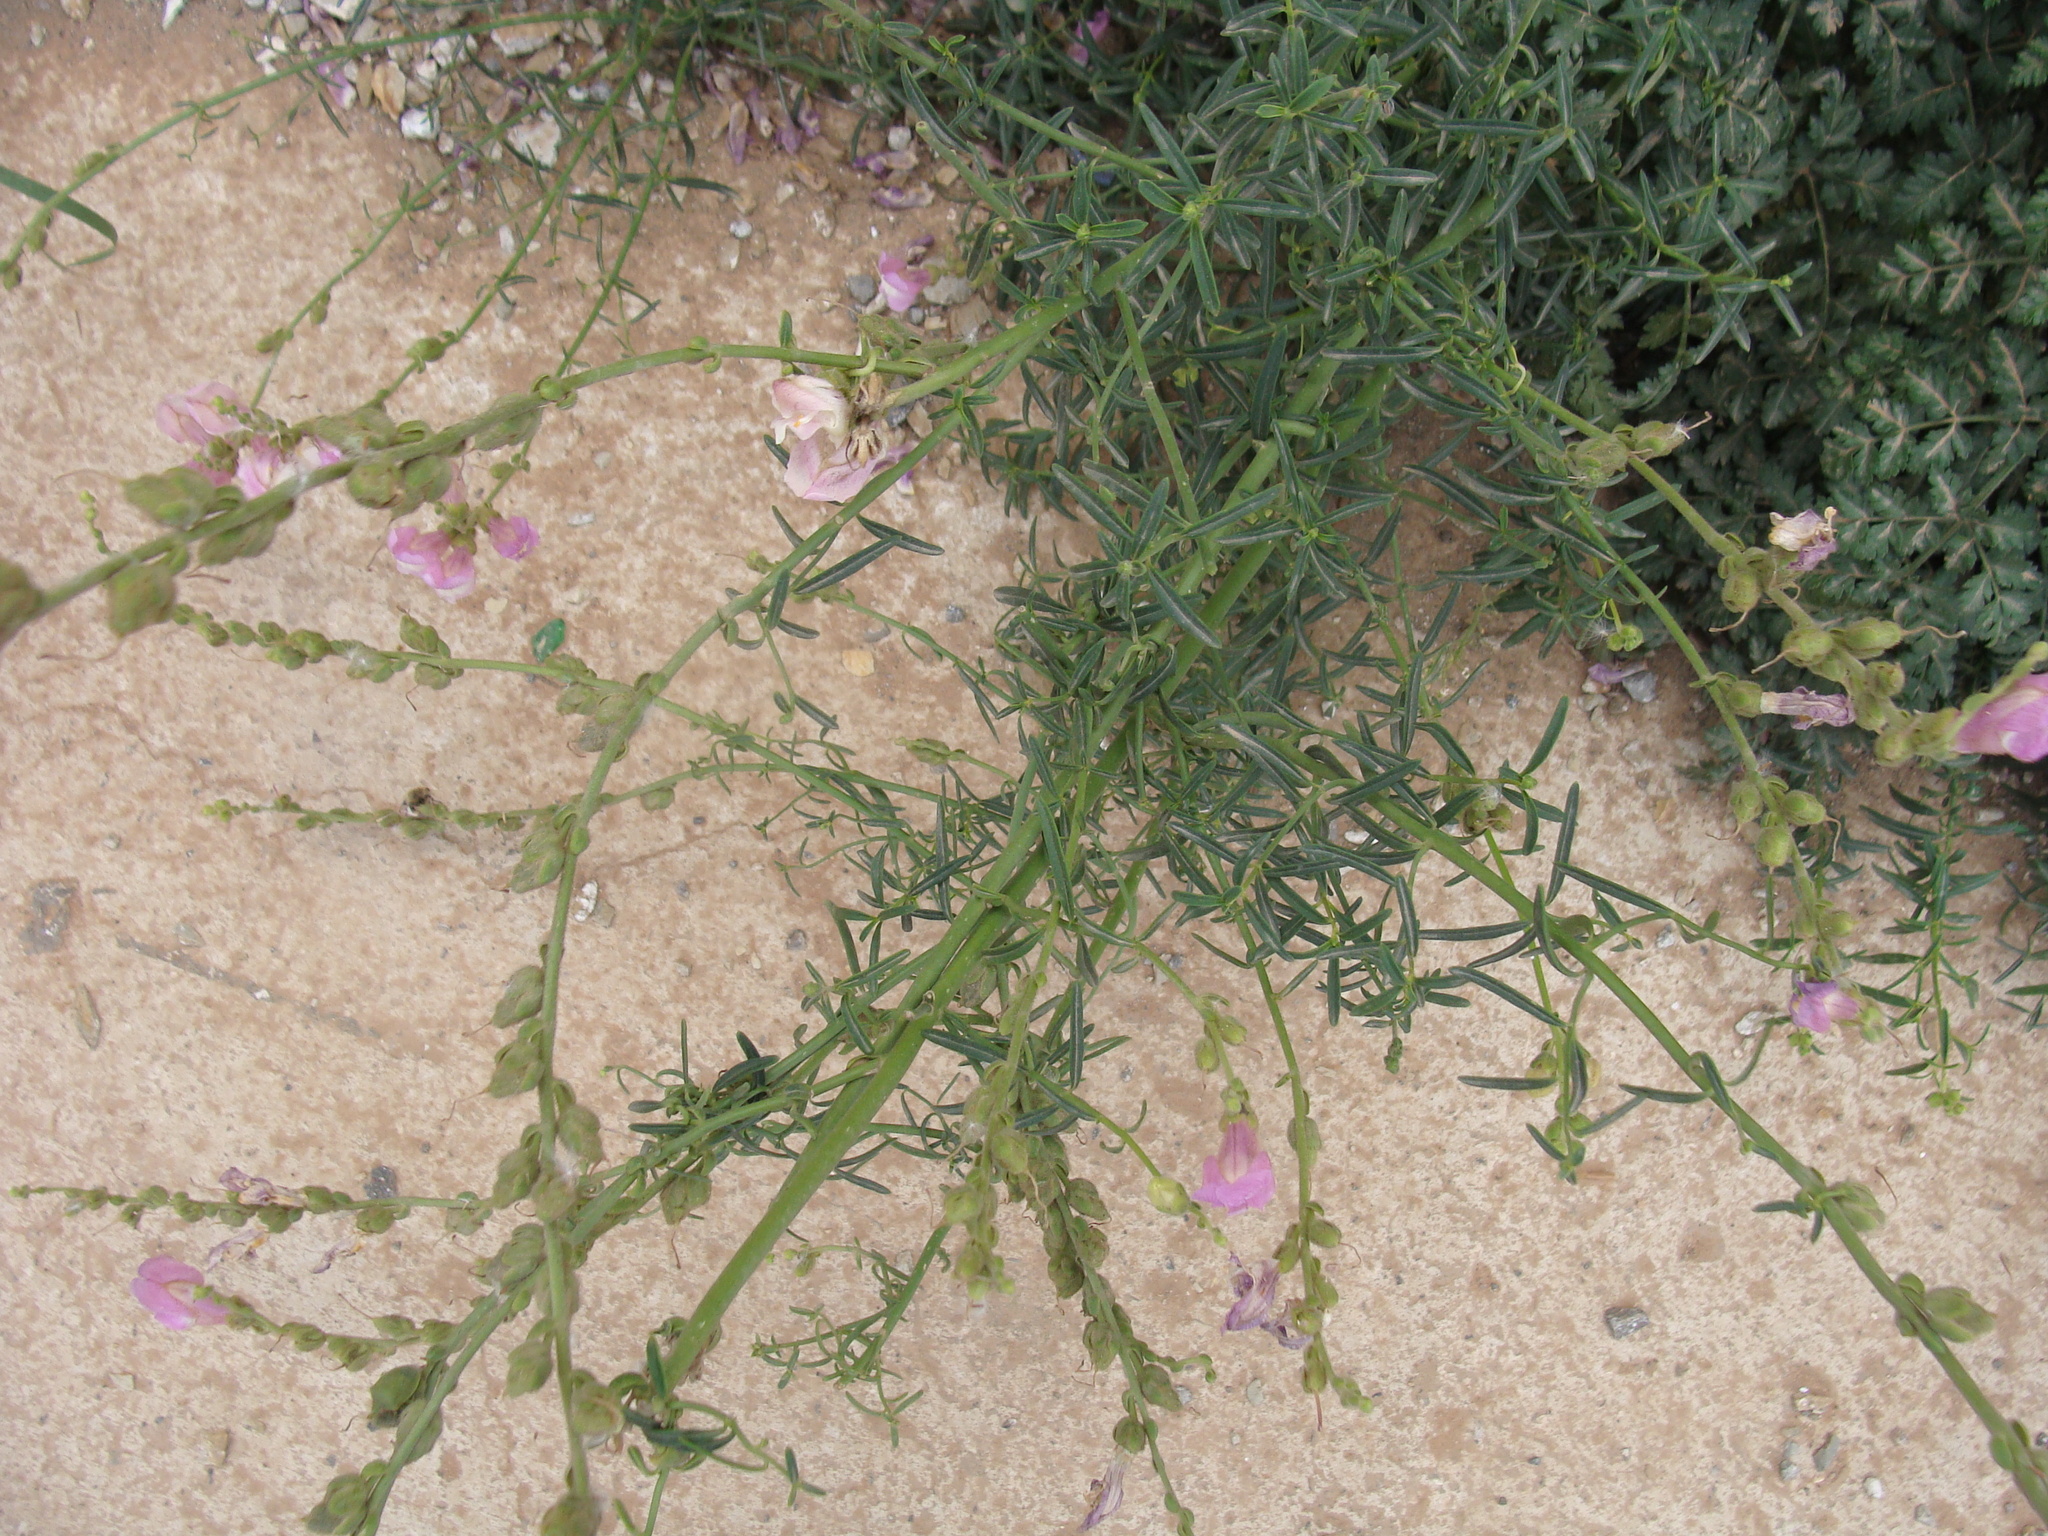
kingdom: Plantae
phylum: Tracheophyta
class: Magnoliopsida
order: Lamiales
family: Plantaginaceae
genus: Antirrhinum
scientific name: Antirrhinum tortuosum
